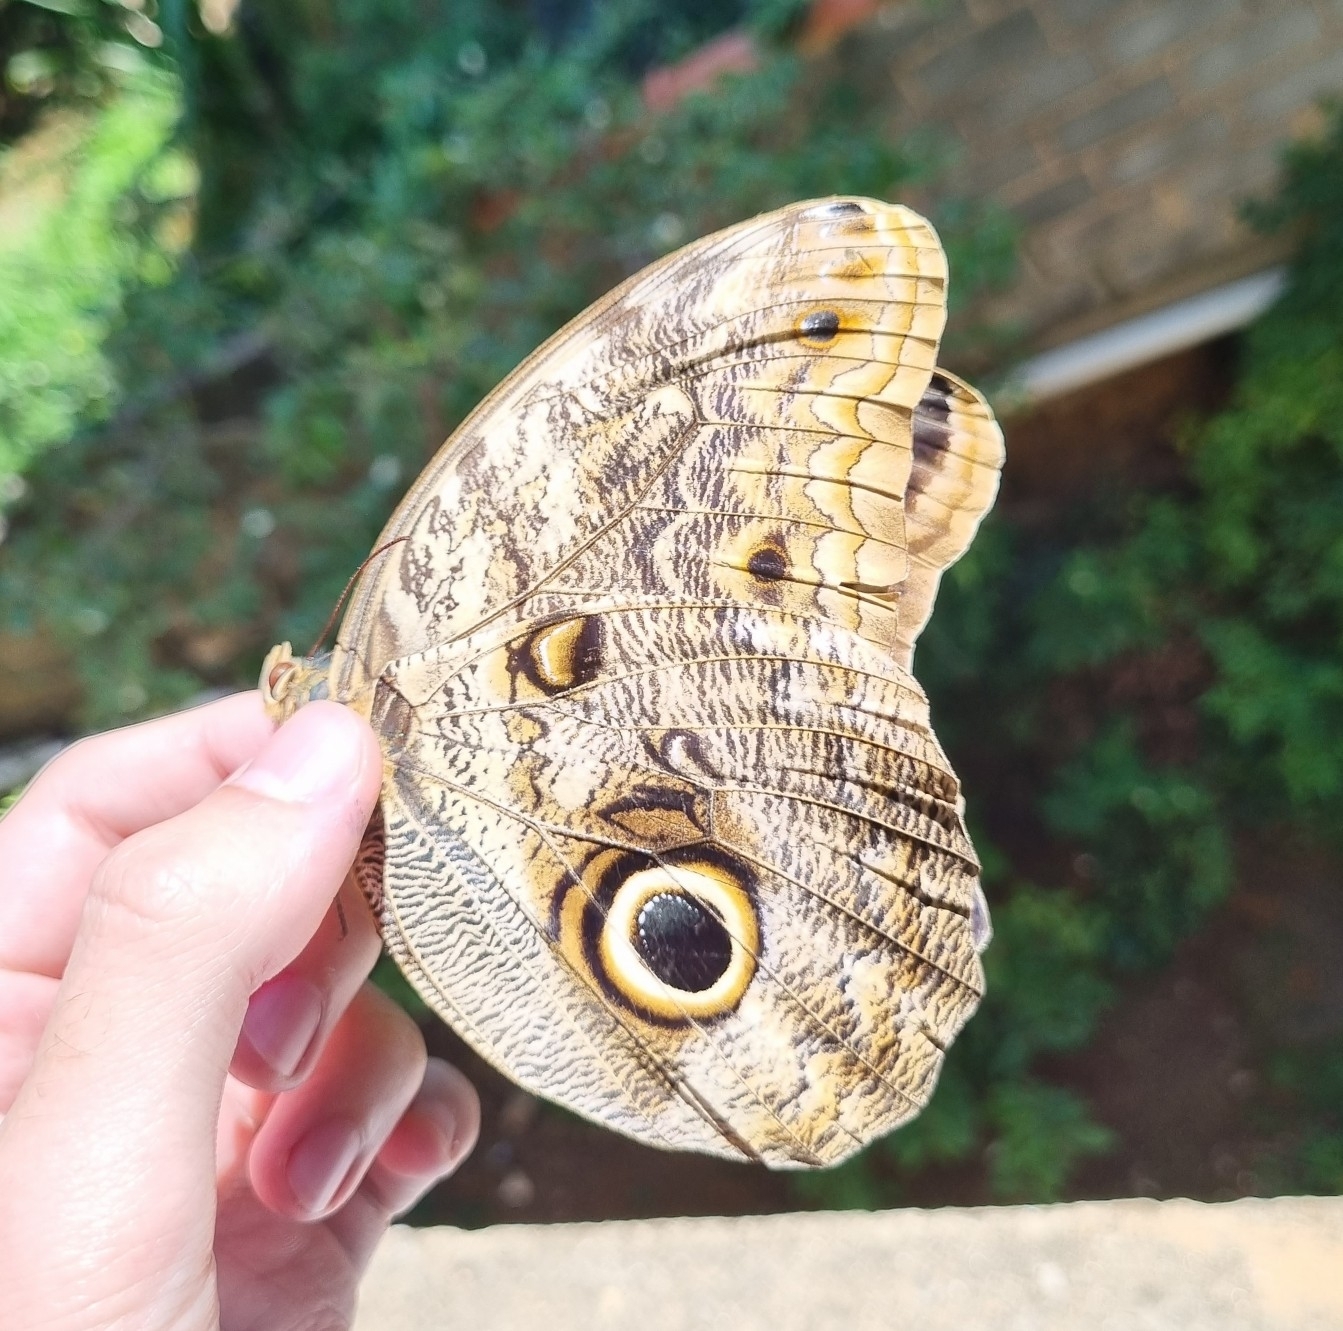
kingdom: Animalia
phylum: Arthropoda
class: Insecta
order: Lepidoptera
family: Nymphalidae
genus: Caligo
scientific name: Caligo brasiliensis
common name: Dark owl-butterfly
